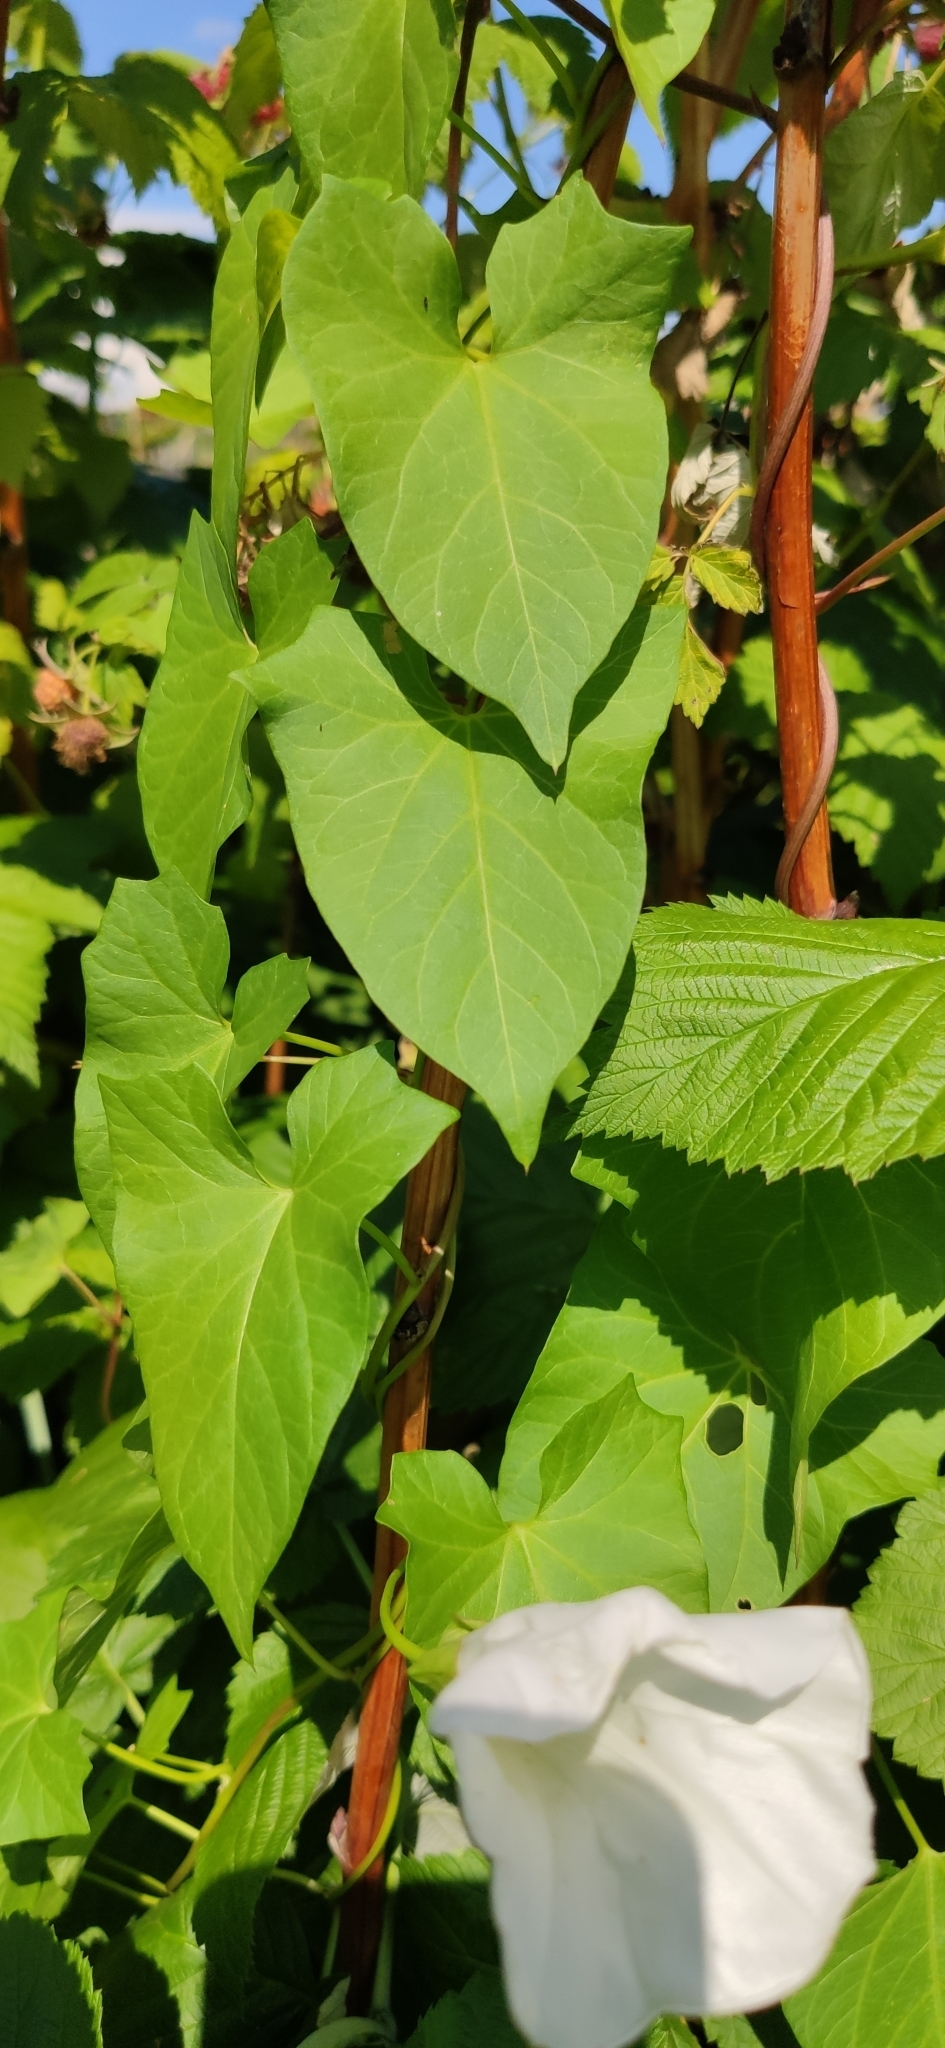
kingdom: Plantae
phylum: Tracheophyta
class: Magnoliopsida
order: Solanales
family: Convolvulaceae
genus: Calystegia
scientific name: Calystegia sepium
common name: Hedge bindweed
